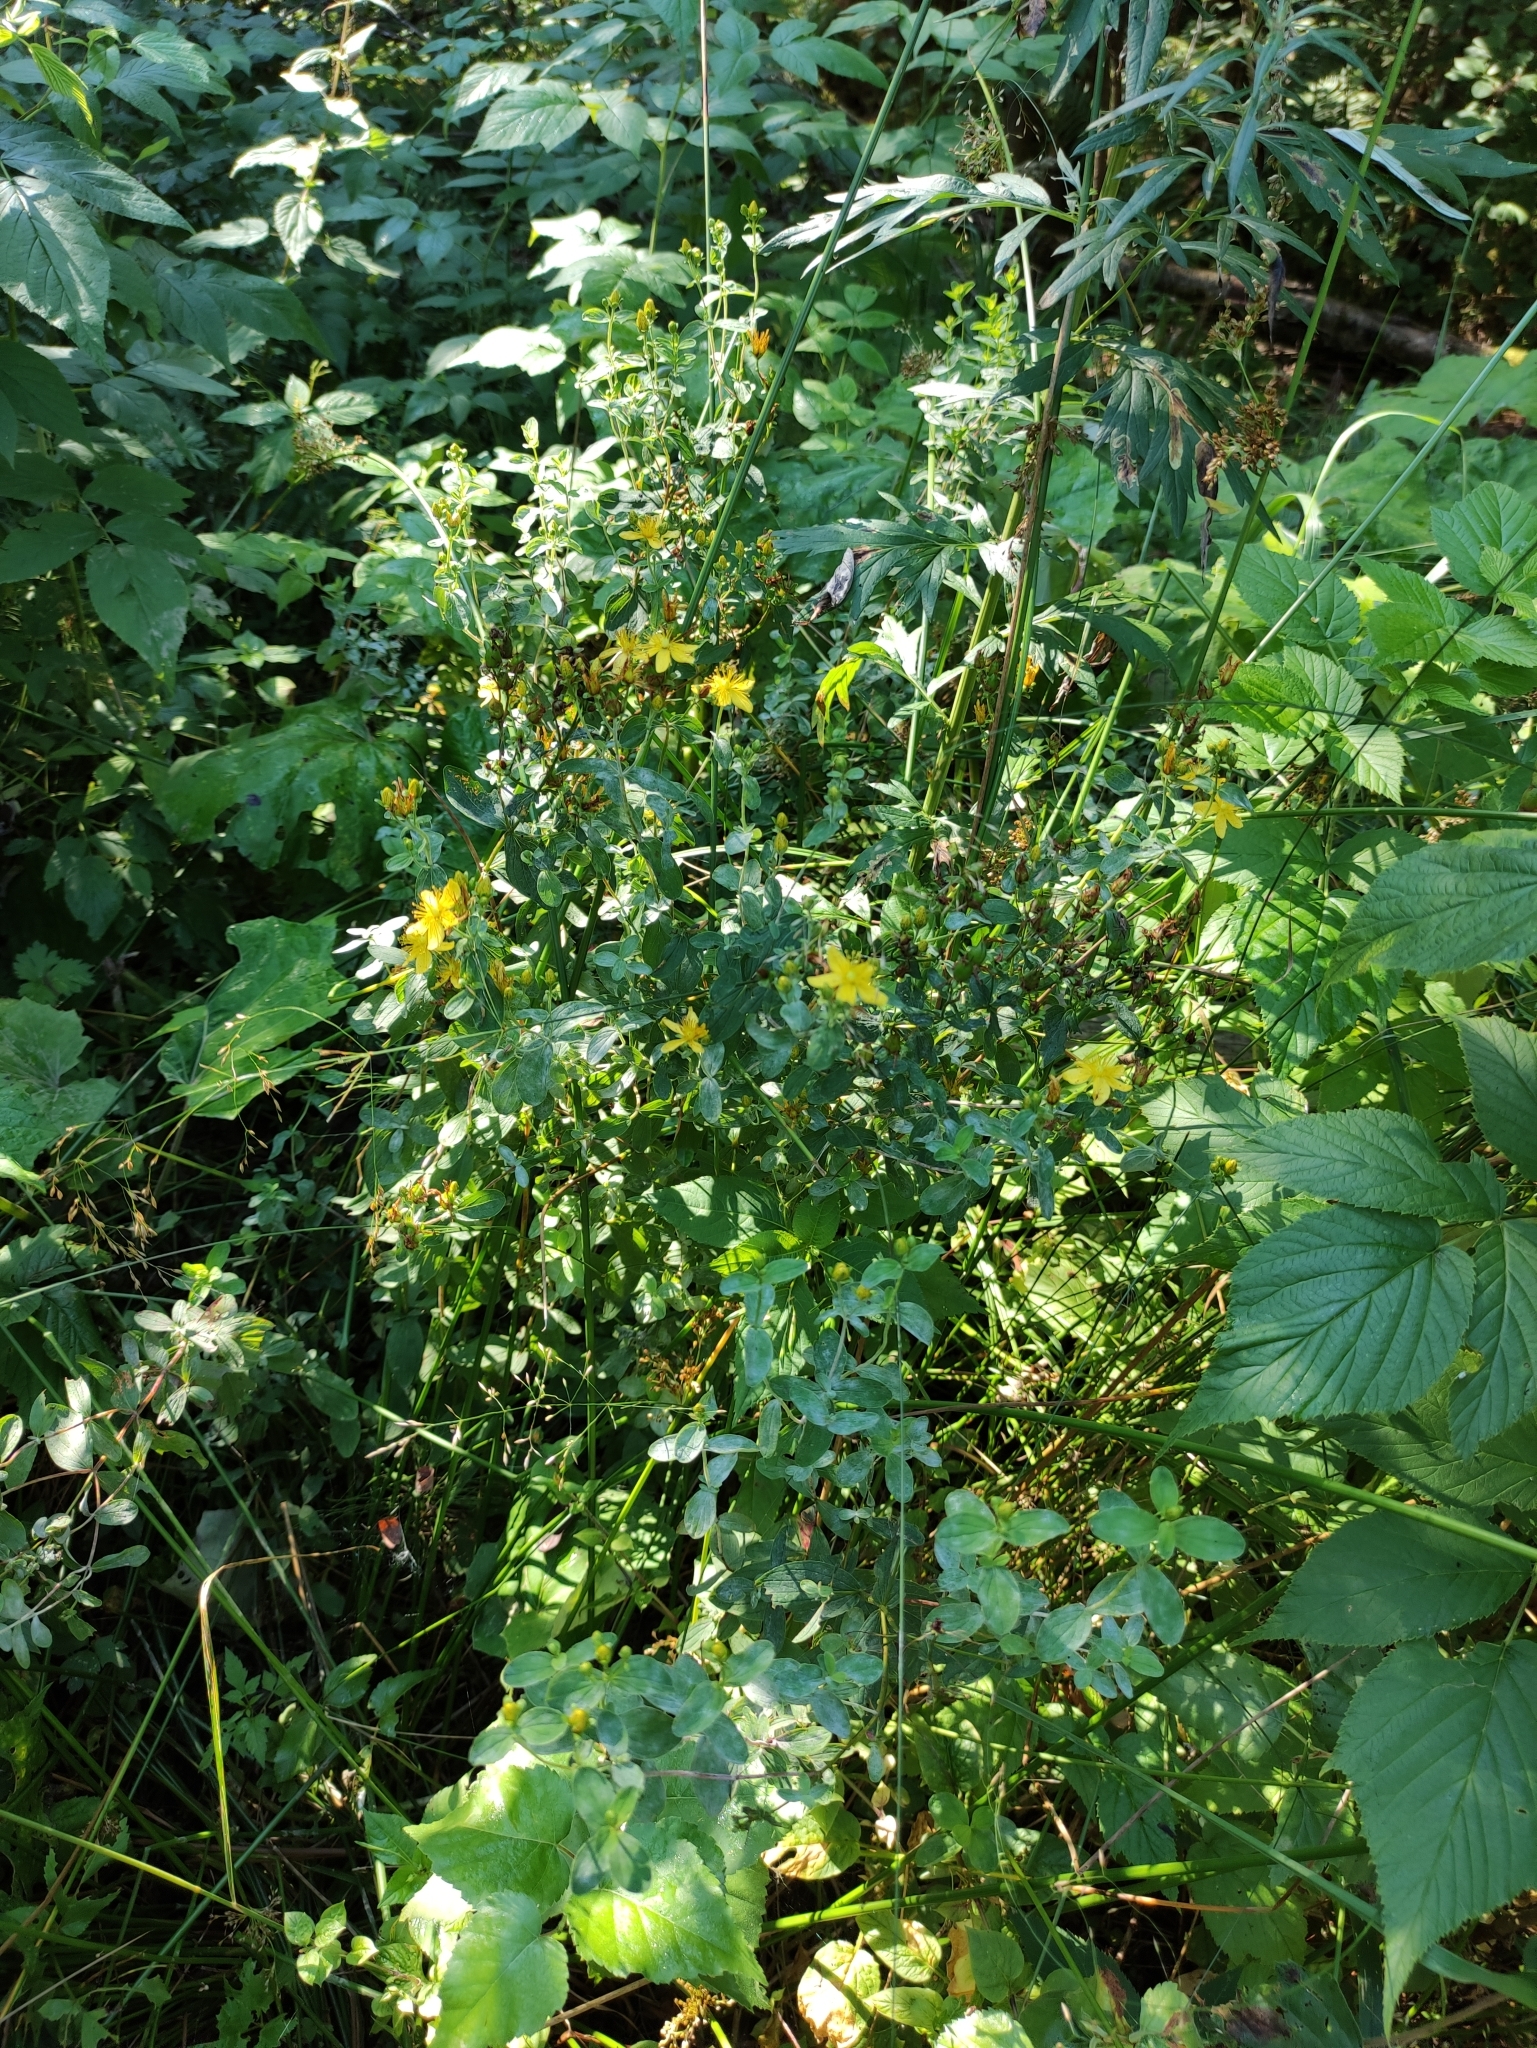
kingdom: Plantae
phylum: Tracheophyta
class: Magnoliopsida
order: Malpighiales
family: Hypericaceae
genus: Hypericum
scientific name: Hypericum maculatum
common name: Imperforate st. john's-wort
